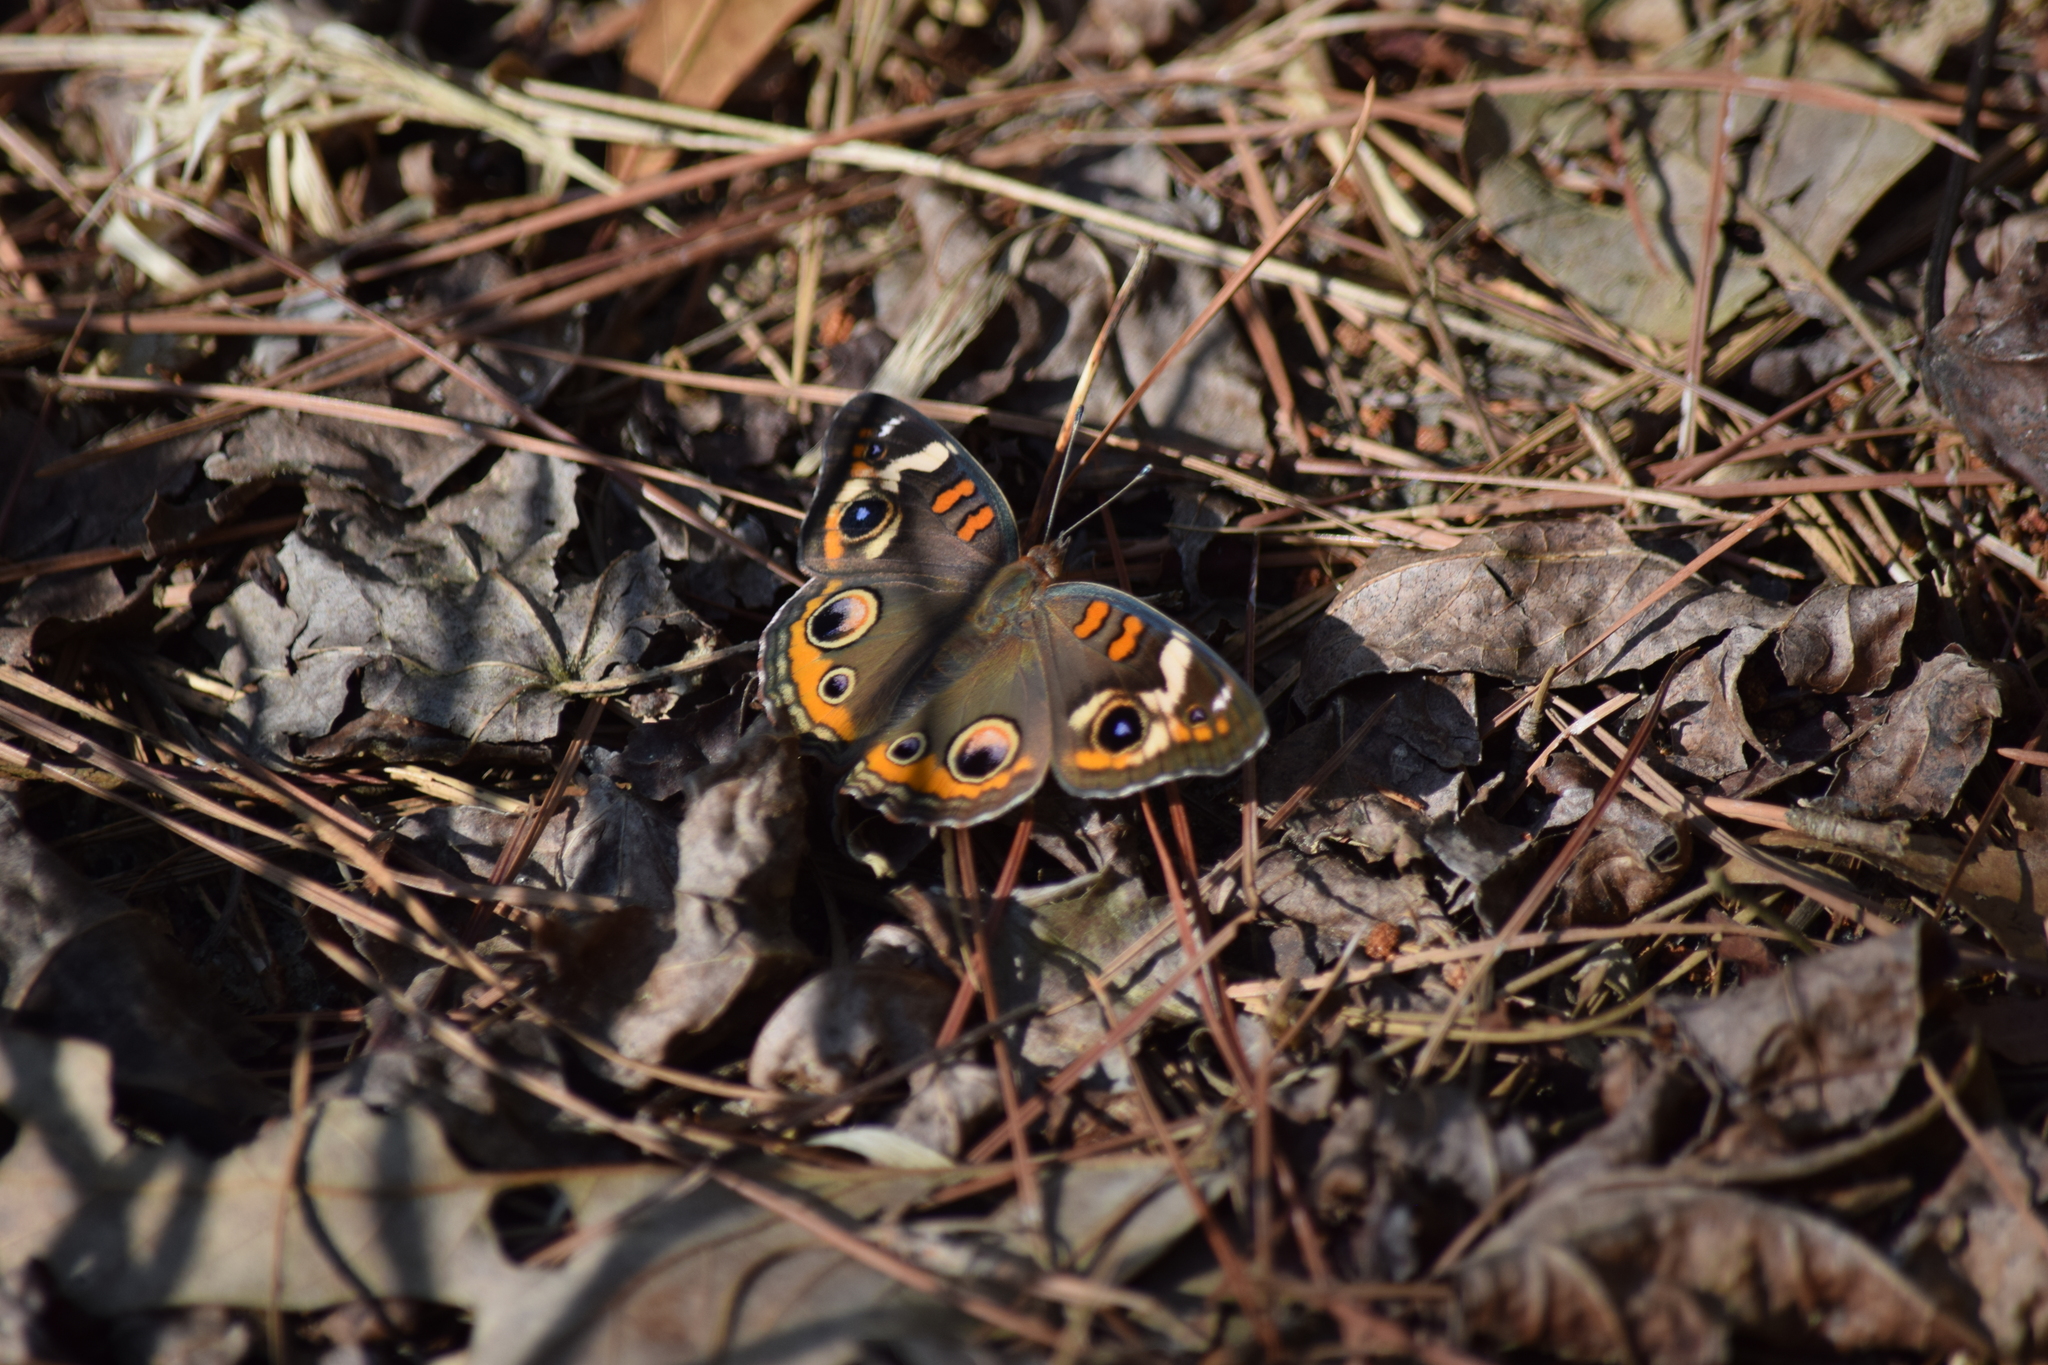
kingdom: Animalia
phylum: Arthropoda
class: Insecta
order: Lepidoptera
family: Nymphalidae
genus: Junonia
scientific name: Junonia coenia
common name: Common buckeye
